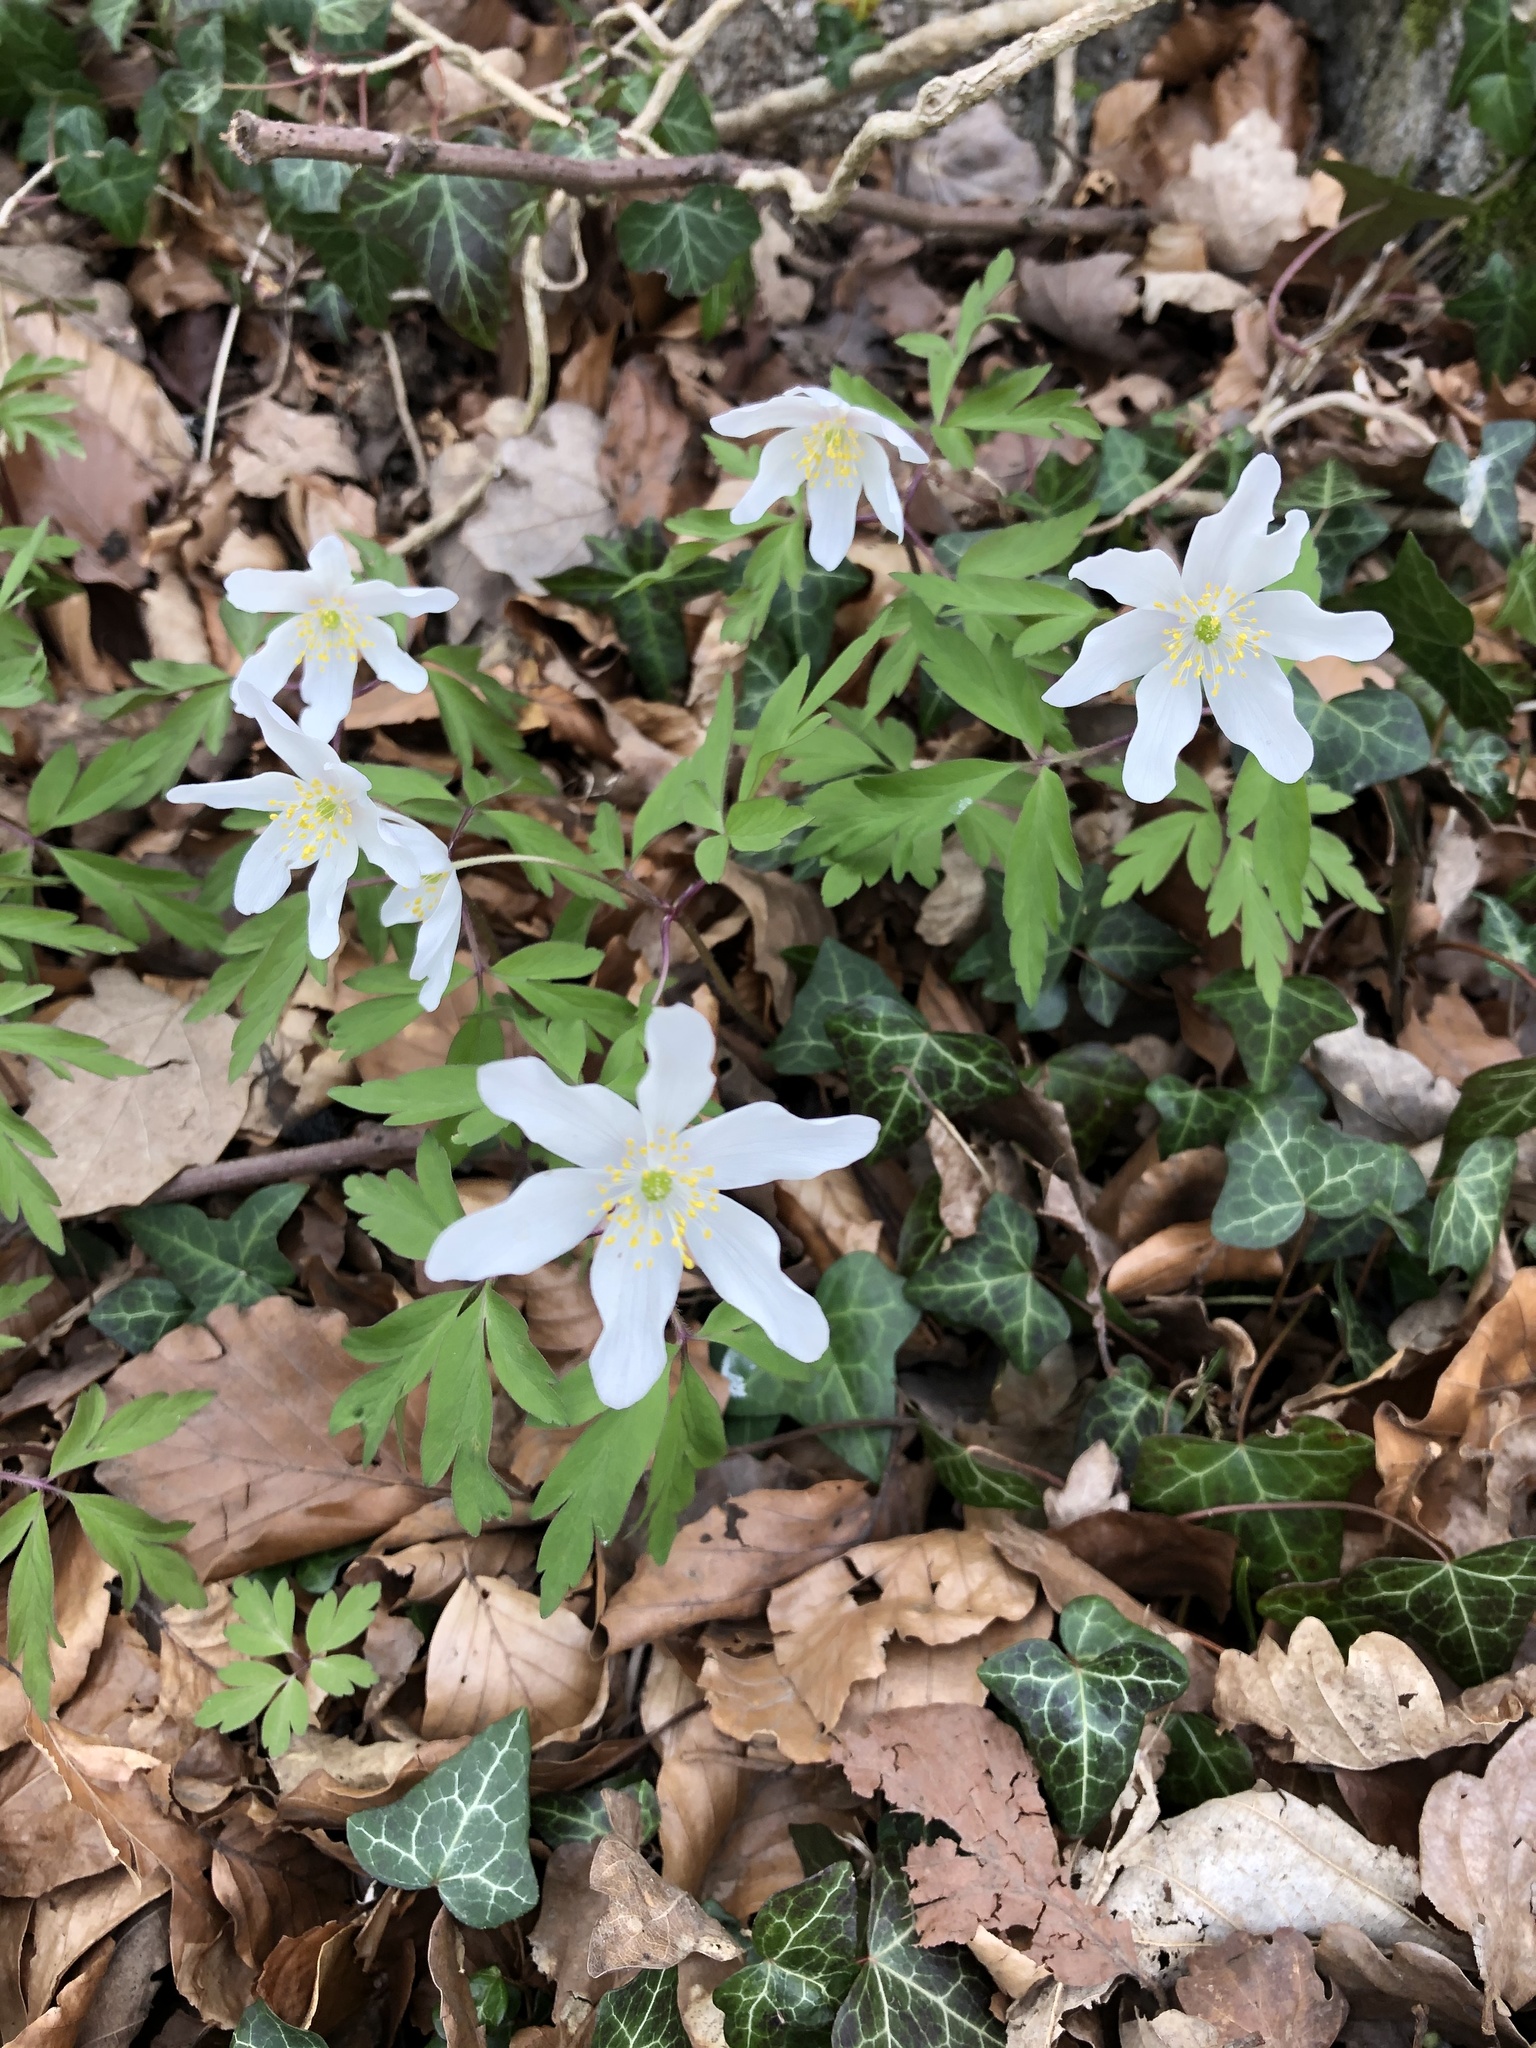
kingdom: Plantae
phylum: Tracheophyta
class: Magnoliopsida
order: Ranunculales
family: Ranunculaceae
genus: Anemone
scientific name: Anemone nemorosa
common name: Wood anemone
